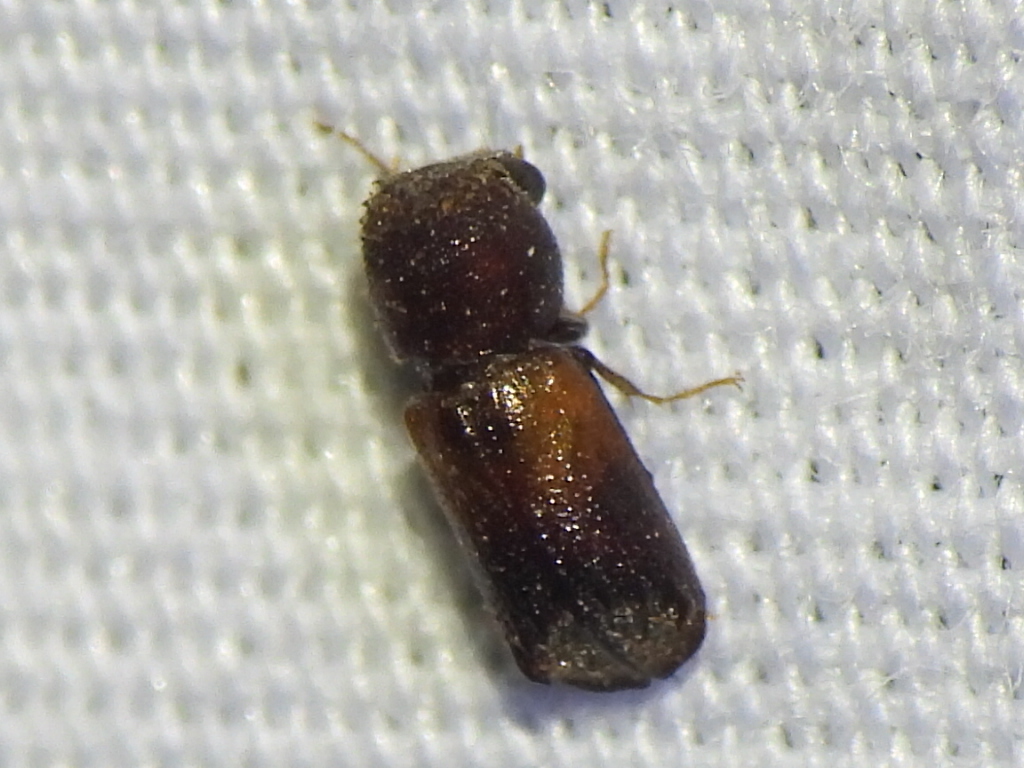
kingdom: Animalia
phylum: Arthropoda
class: Insecta
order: Coleoptera
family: Bostrichidae
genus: Xylobiops
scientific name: Xylobiops basilaris
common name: Red-shouldered bostrichid
